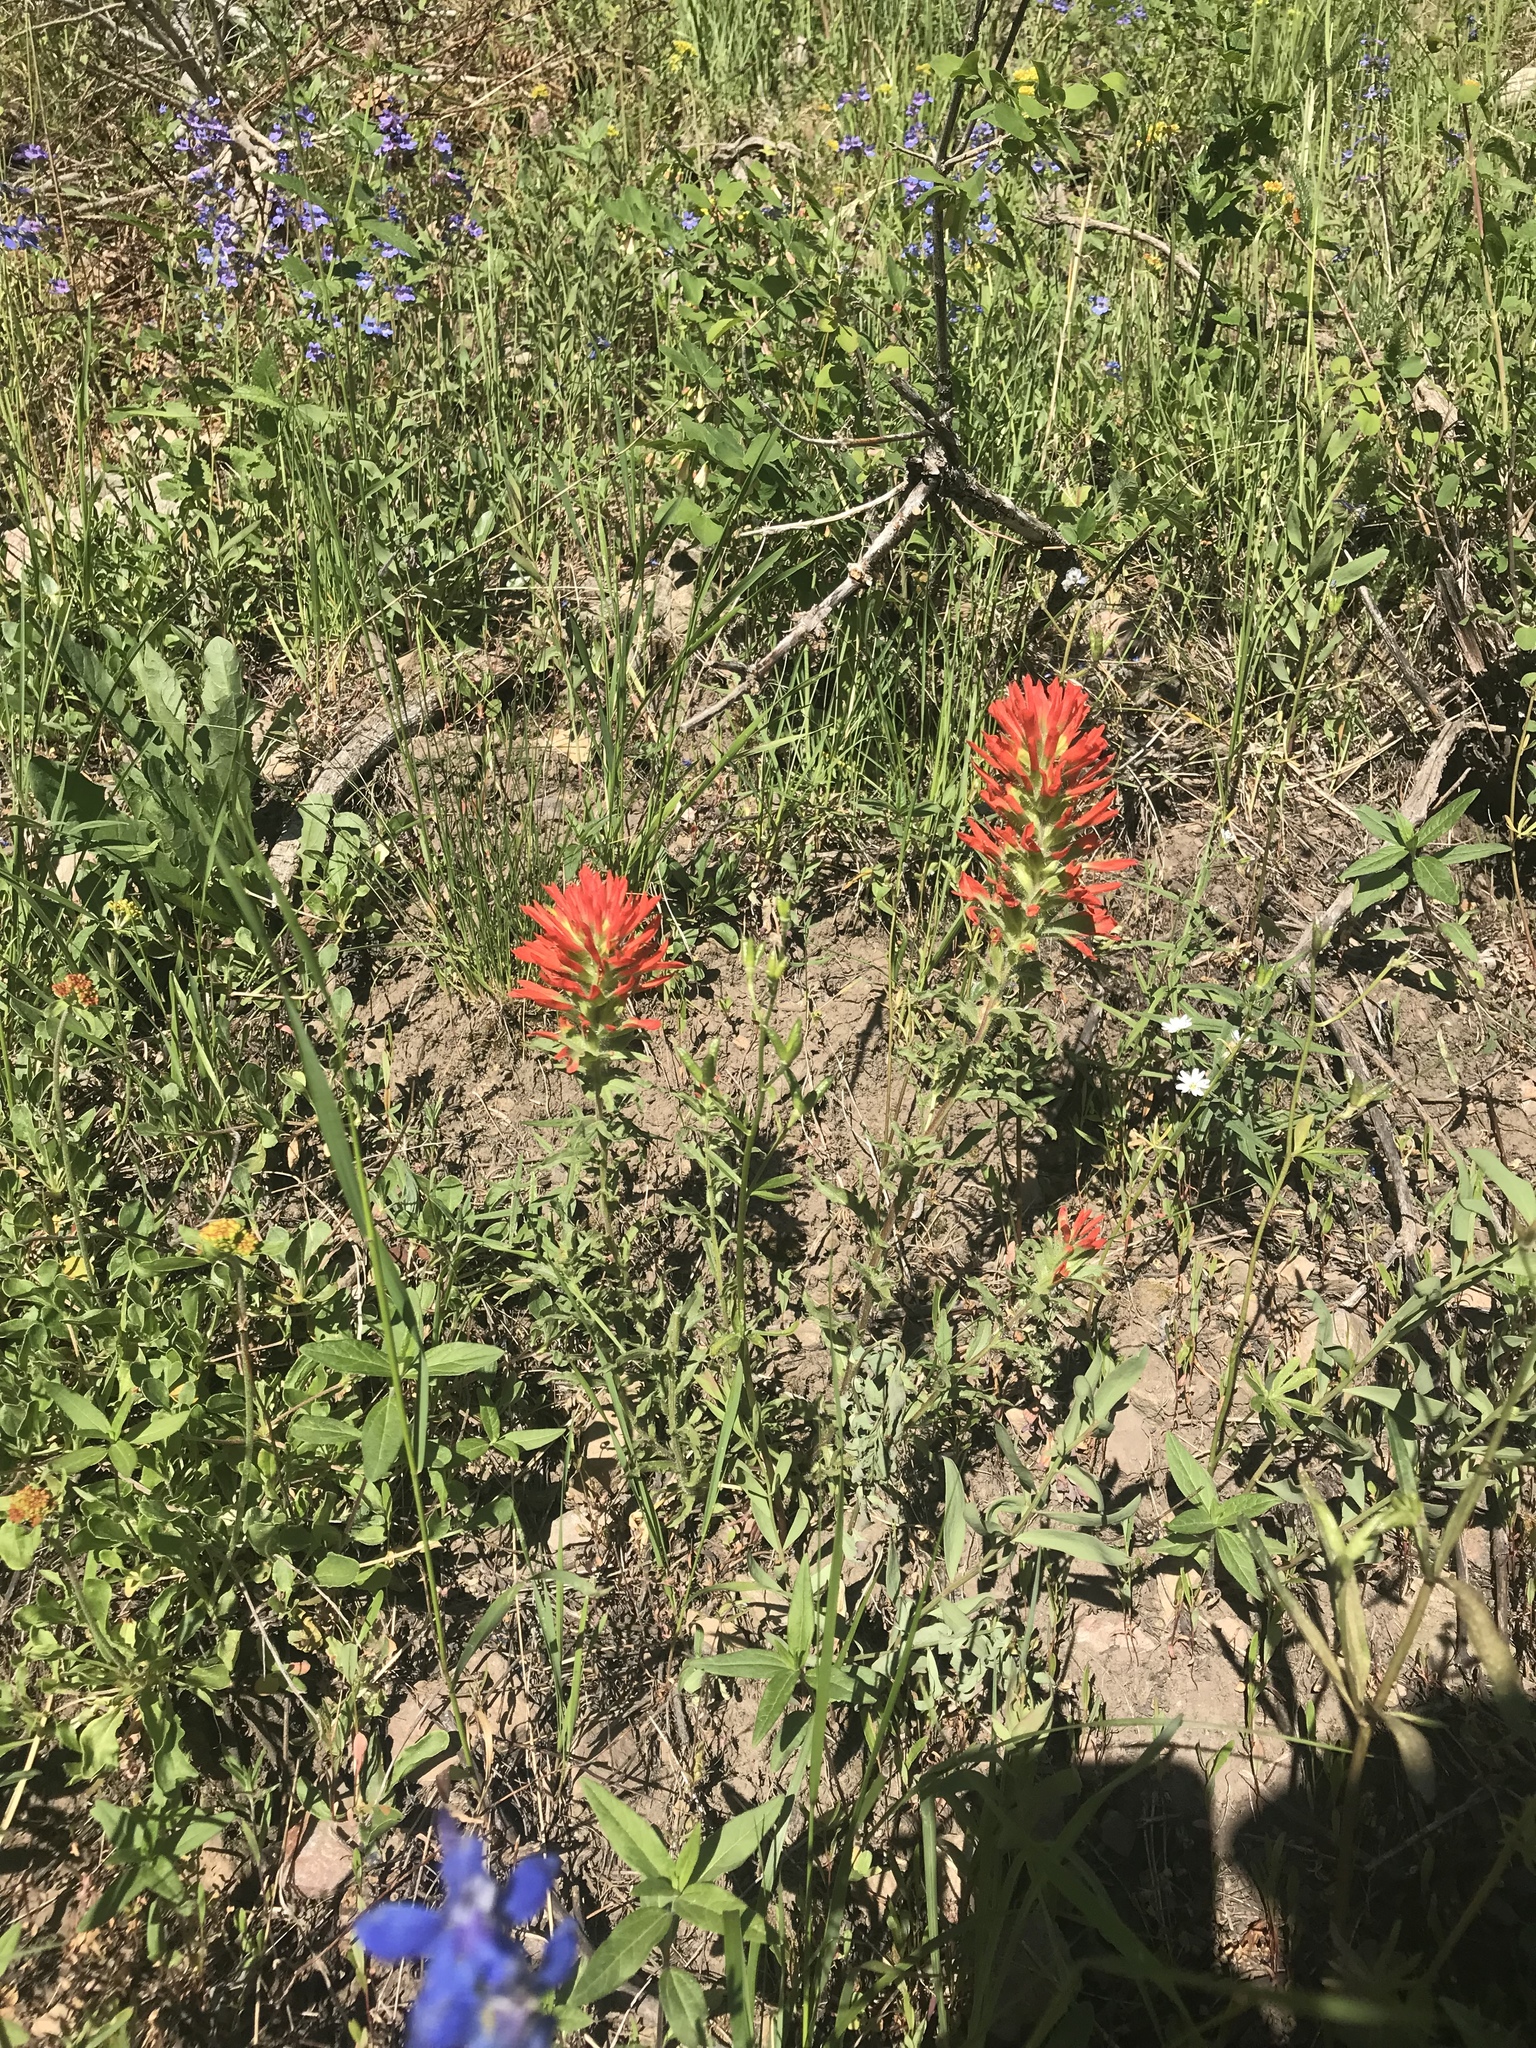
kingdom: Plantae
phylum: Tracheophyta
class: Magnoliopsida
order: Lamiales
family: Orobanchaceae
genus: Castilleja
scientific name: Castilleja applegatei
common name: Wavy-leaf paintbrush
